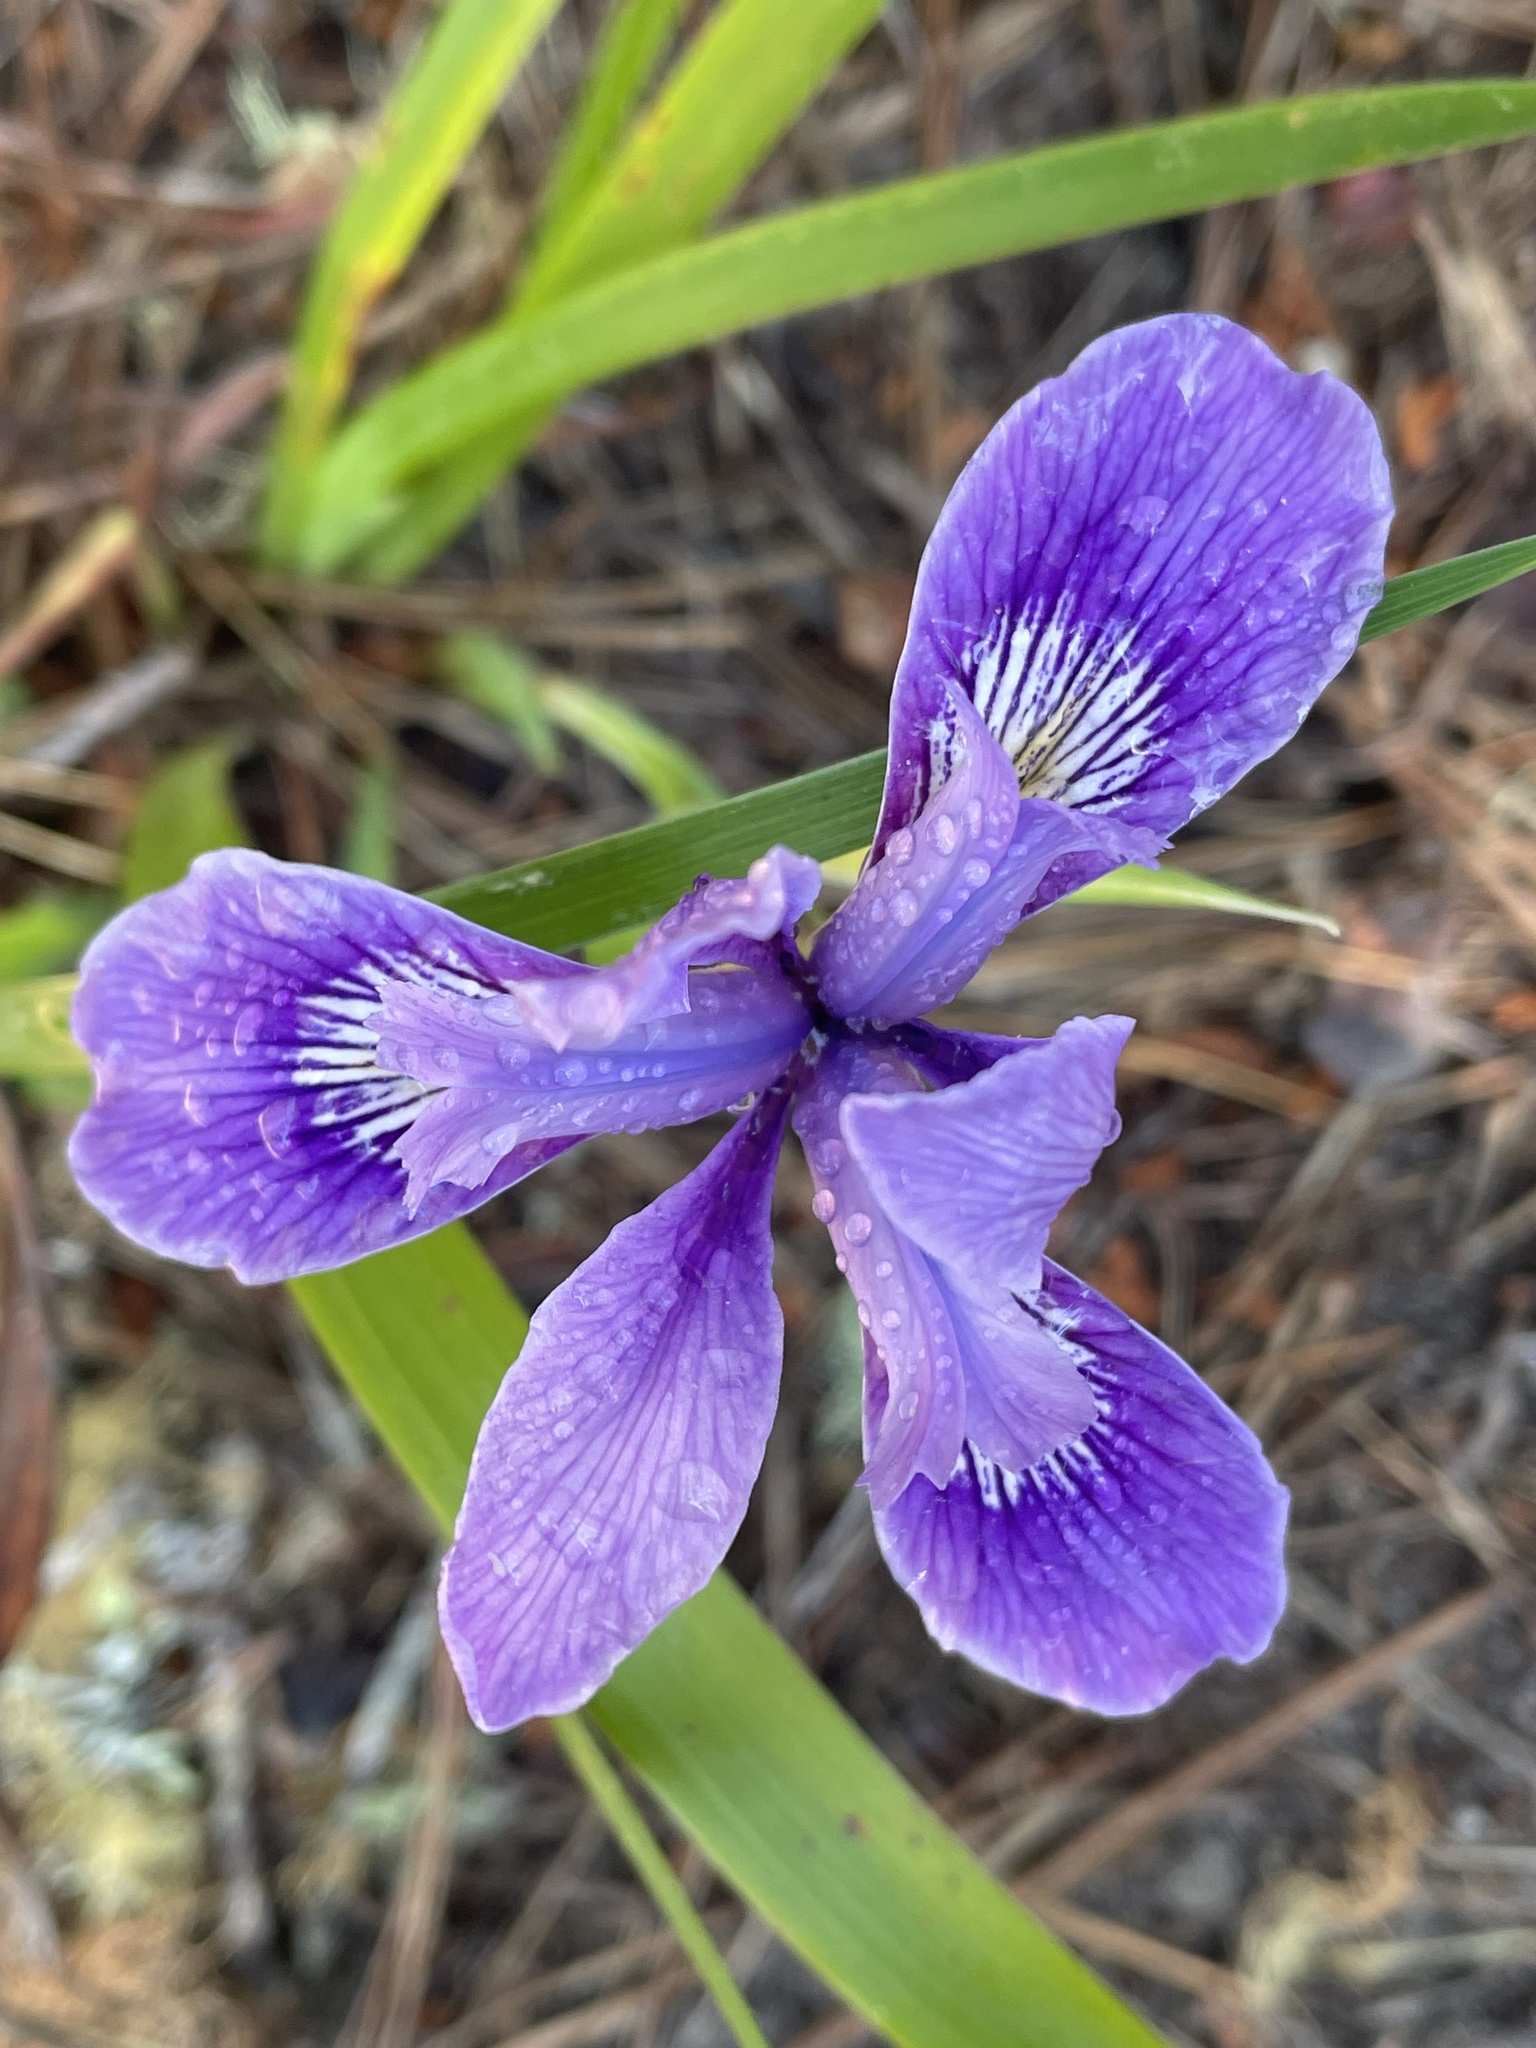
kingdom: Plantae
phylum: Tracheophyta
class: Liliopsida
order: Asparagales
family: Iridaceae
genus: Iris
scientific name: Iris douglasiana
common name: Marin iris
